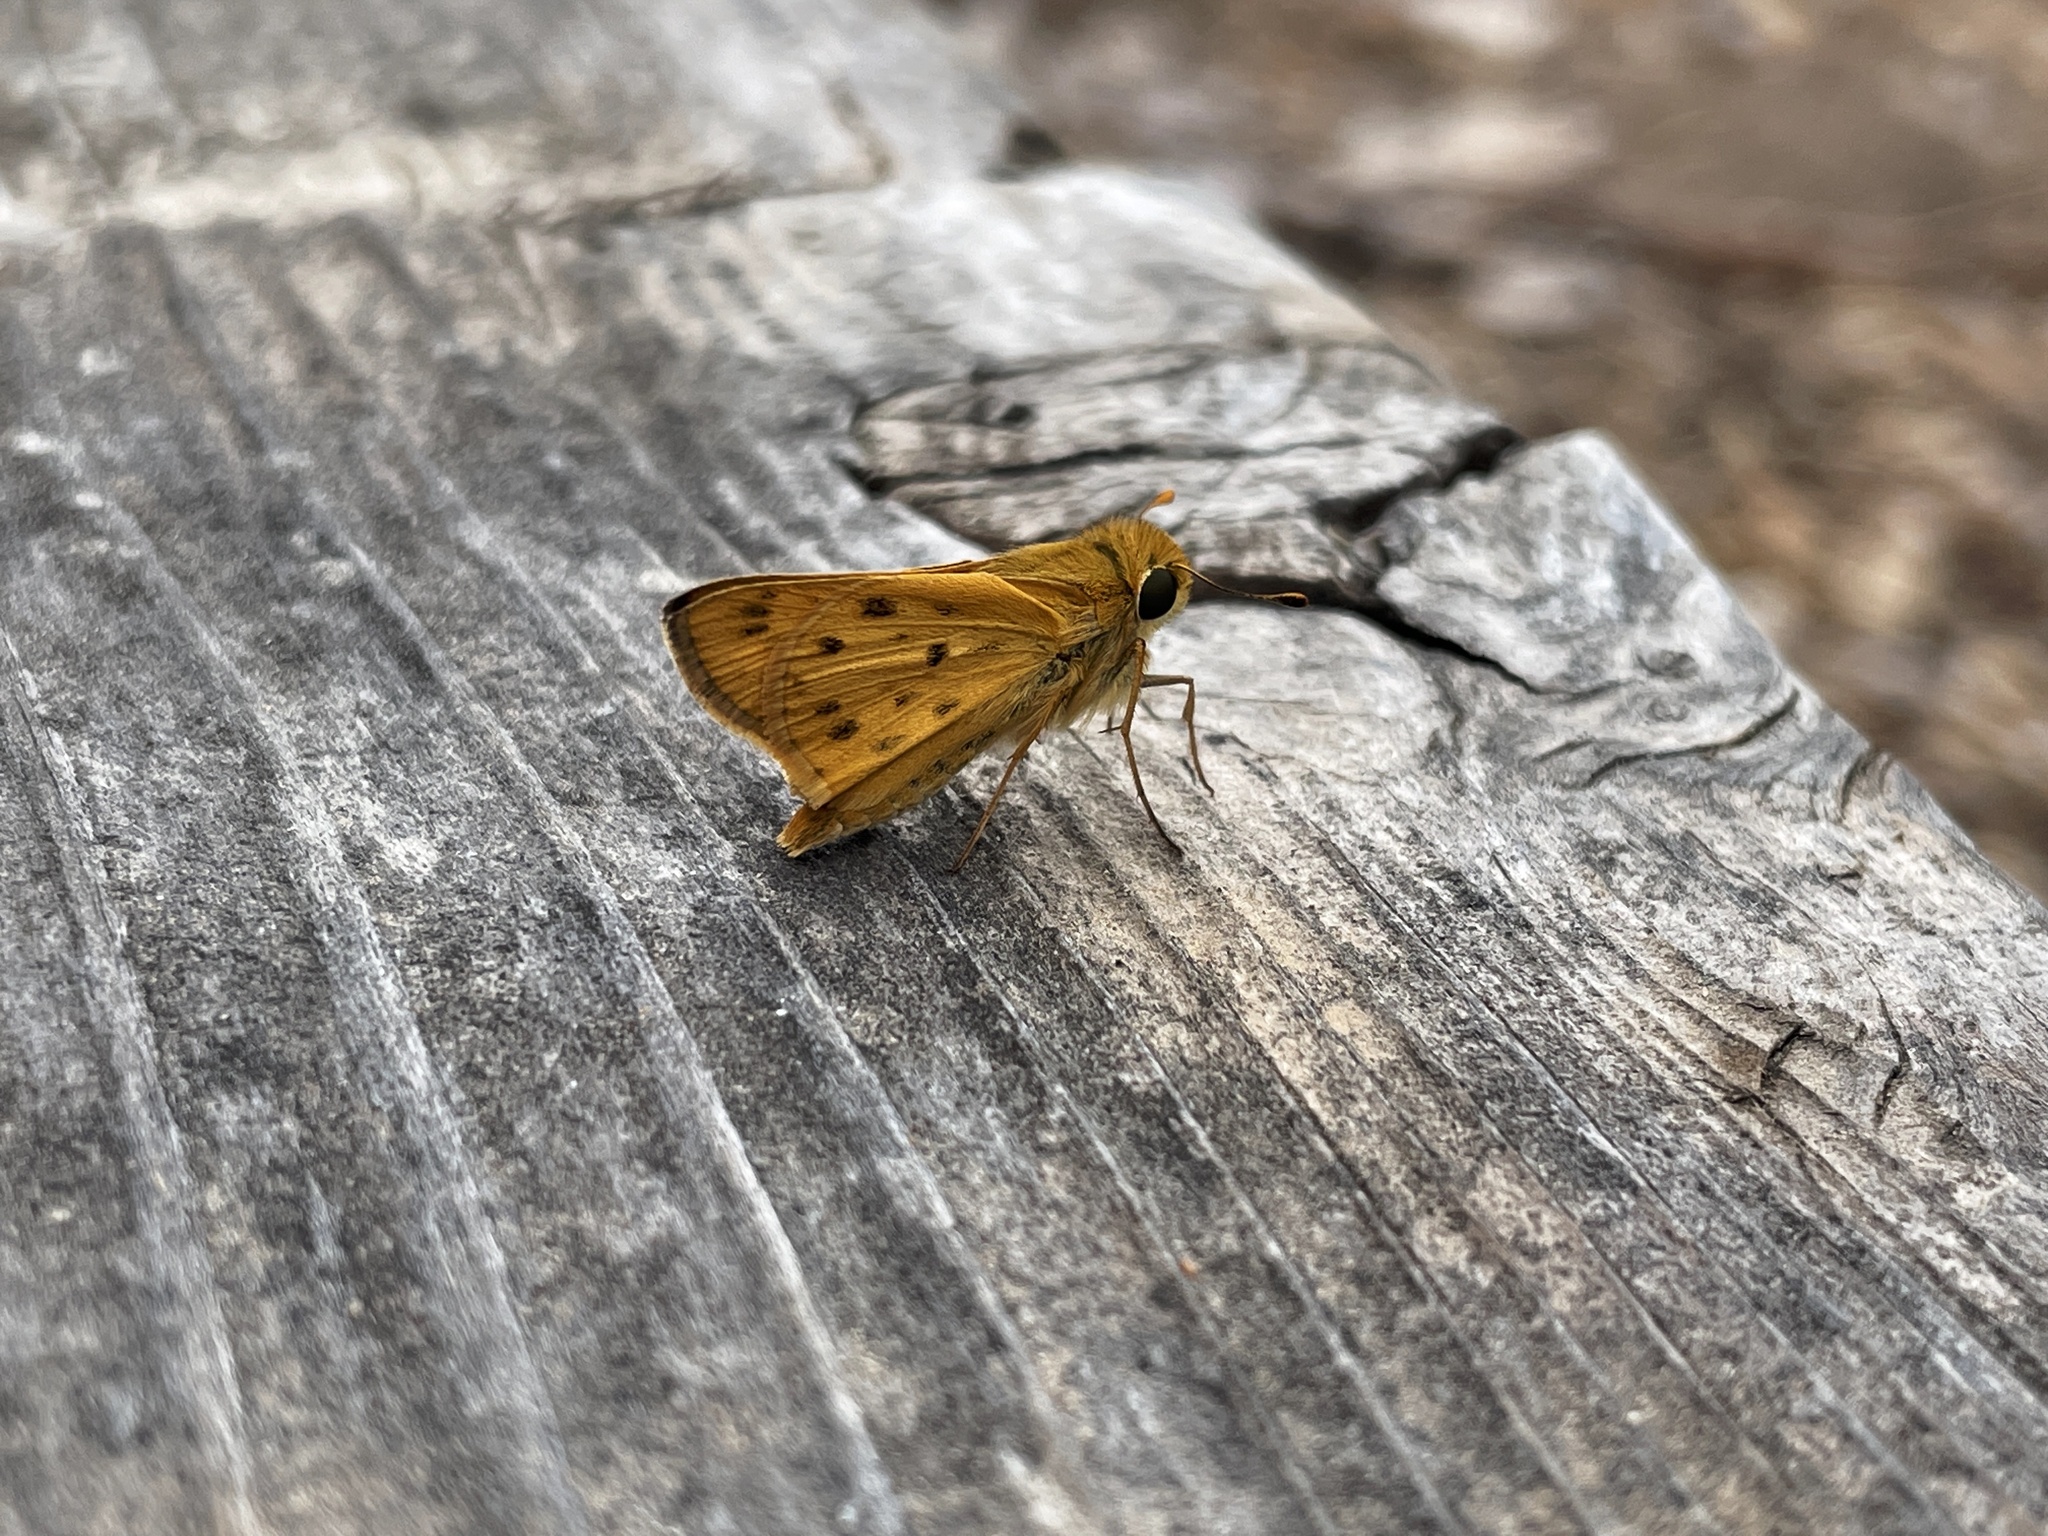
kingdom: Animalia
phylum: Arthropoda
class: Insecta
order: Lepidoptera
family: Hesperiidae
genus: Hylephila
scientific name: Hylephila phyleus
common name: Fiery skipper
